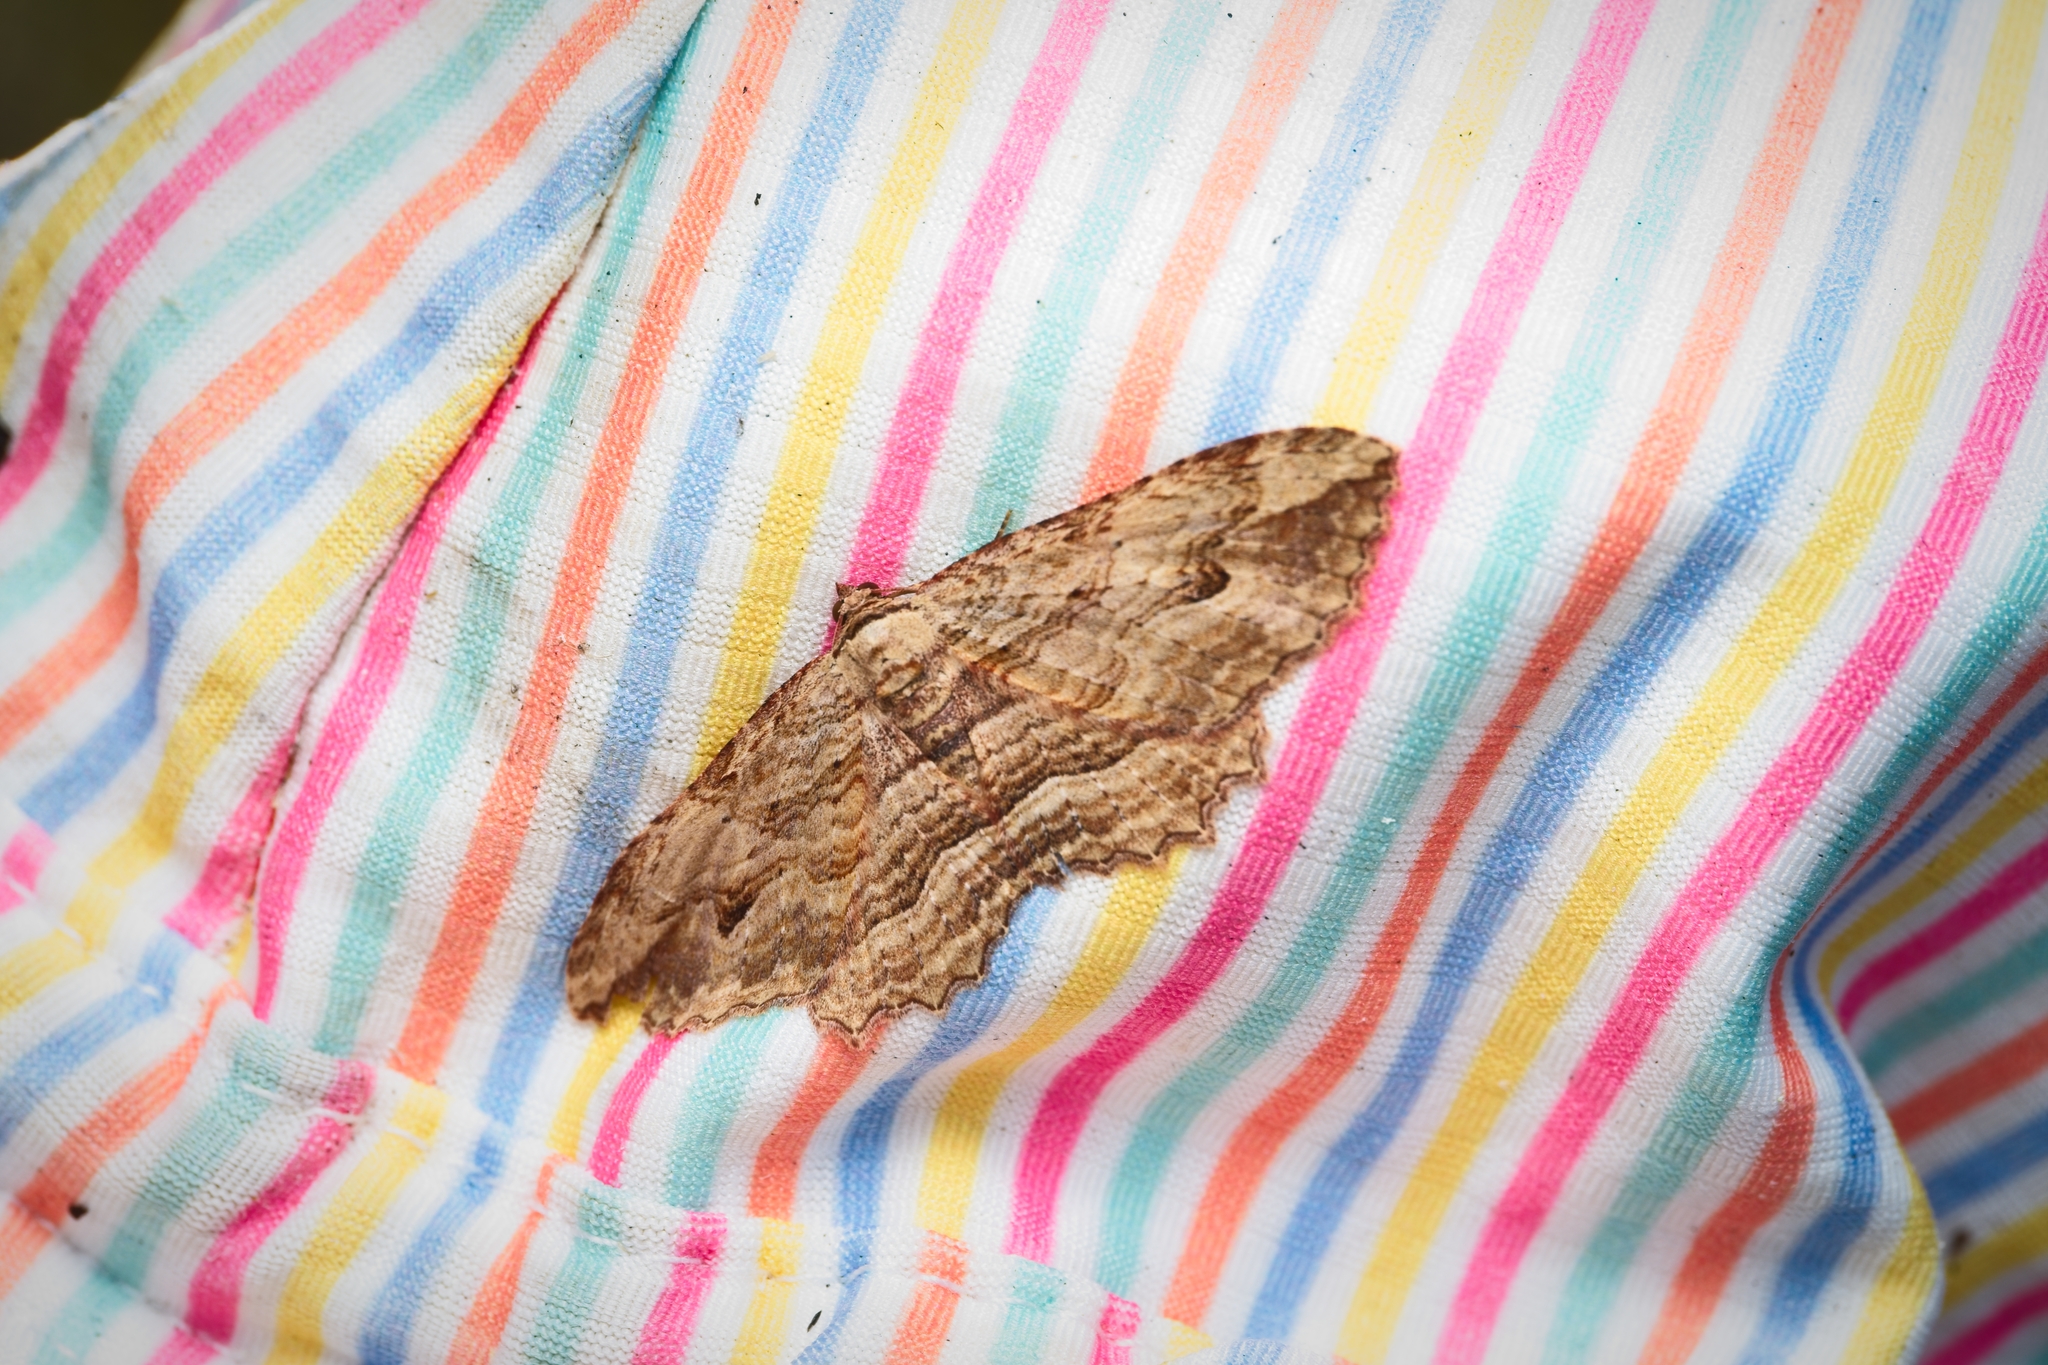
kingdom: Animalia
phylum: Arthropoda
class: Insecta
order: Lepidoptera
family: Geometridae
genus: Austrocidaria
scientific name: Austrocidaria bipartita
